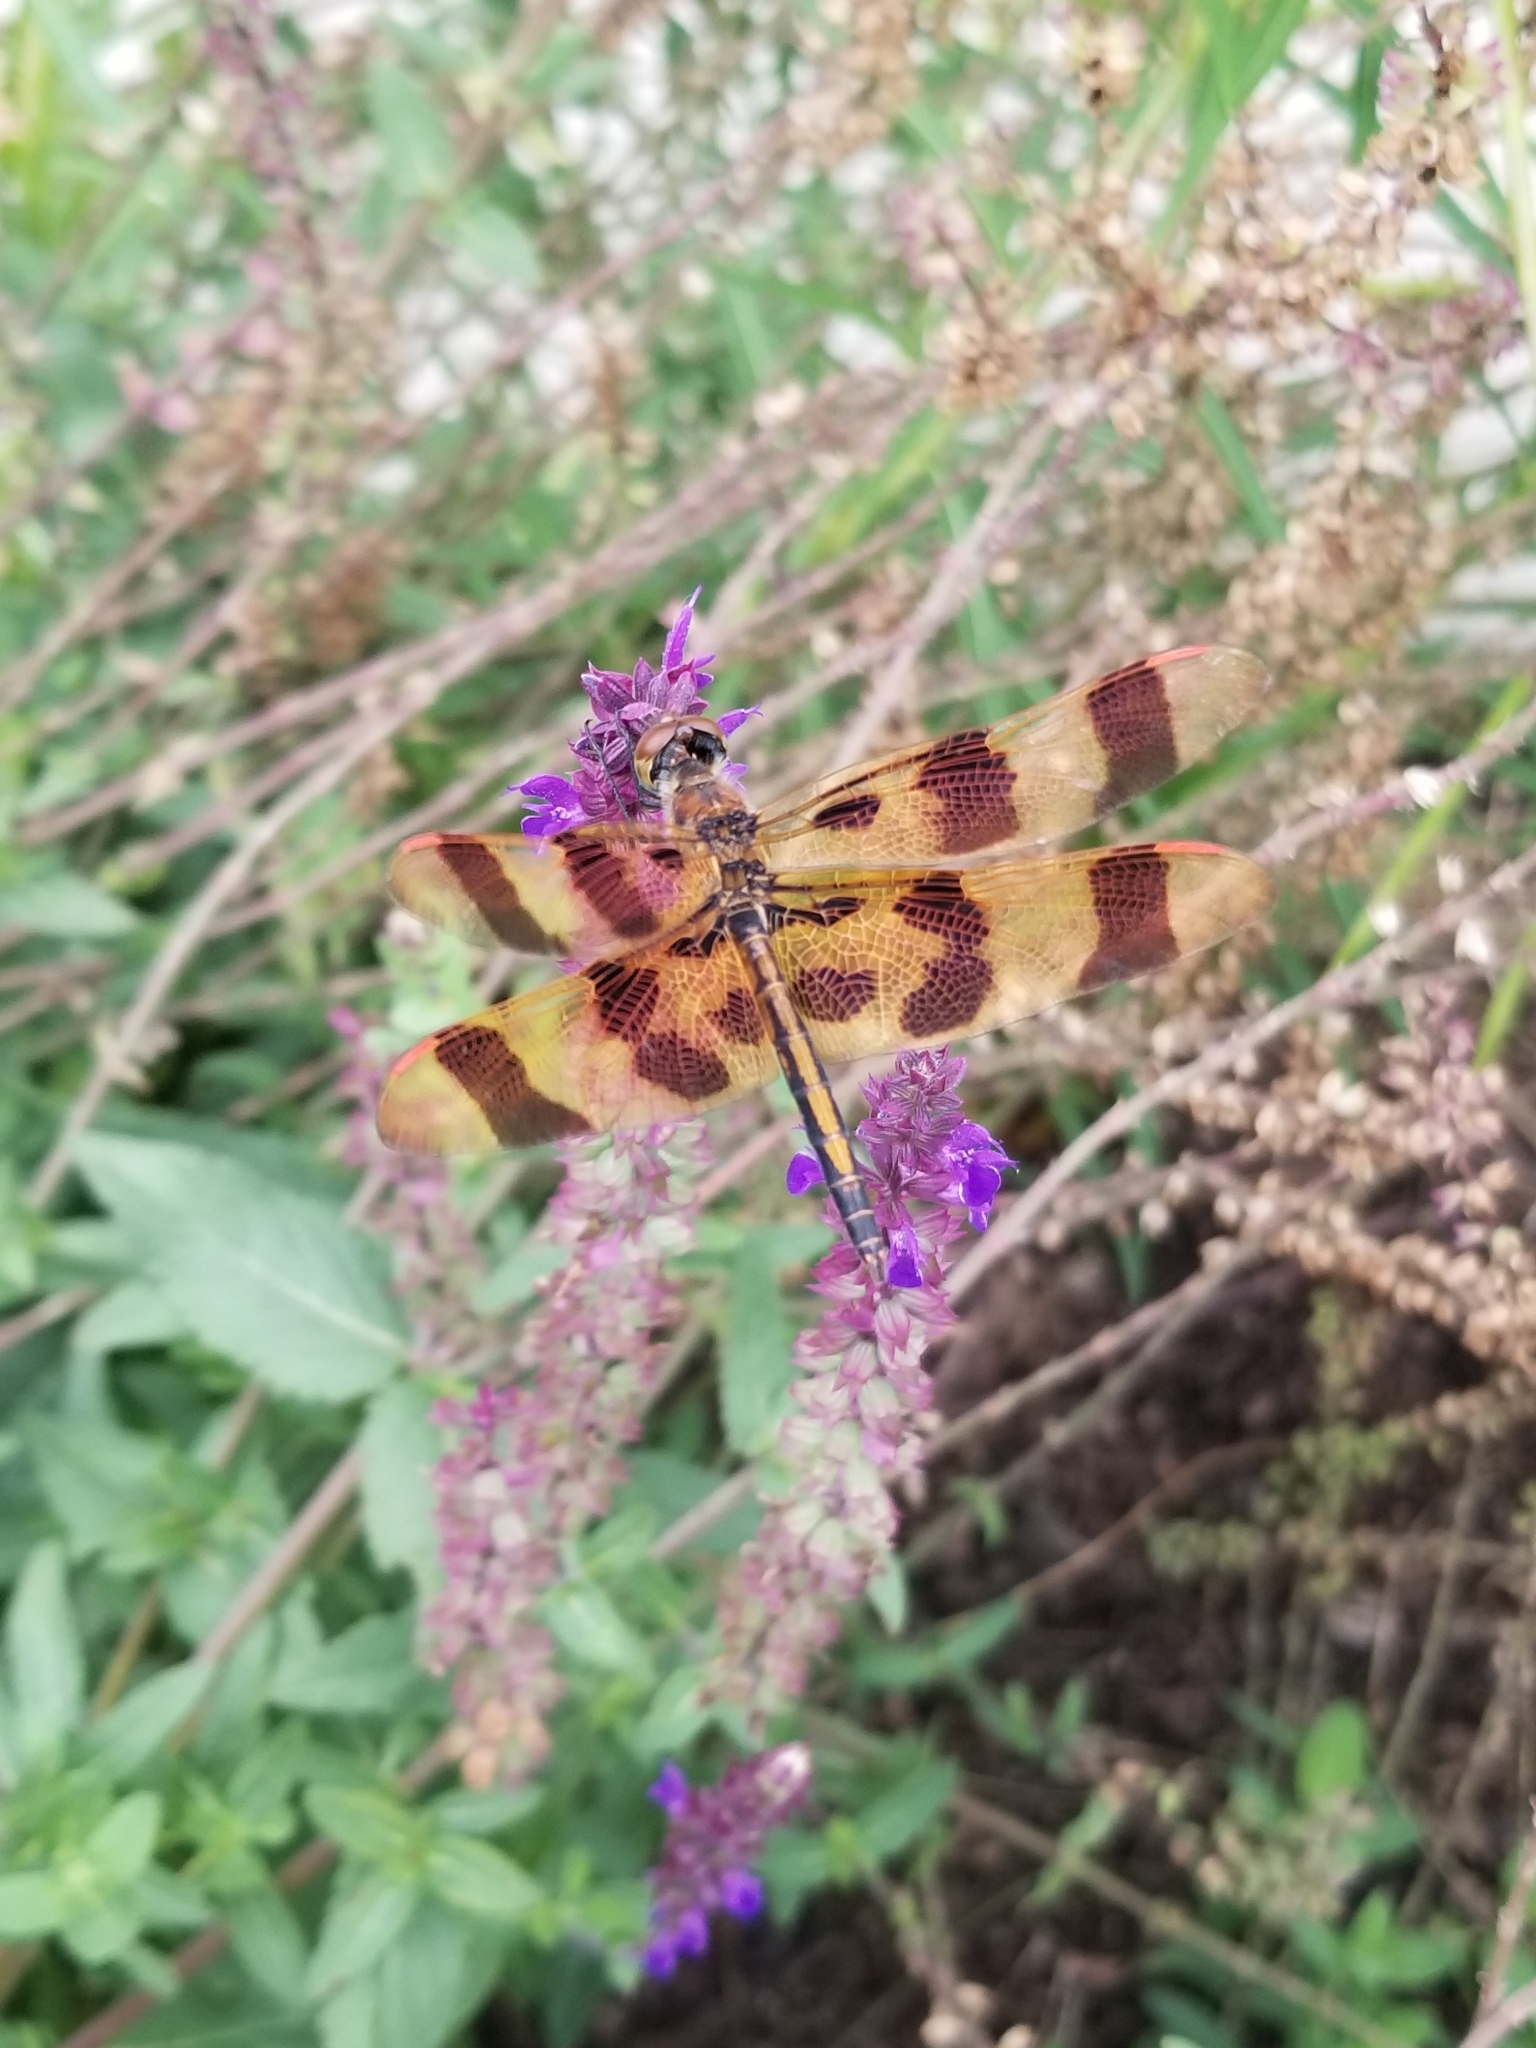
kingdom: Animalia
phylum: Arthropoda
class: Insecta
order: Odonata
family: Libellulidae
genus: Celithemis
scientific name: Celithemis eponina
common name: Halloween pennant
